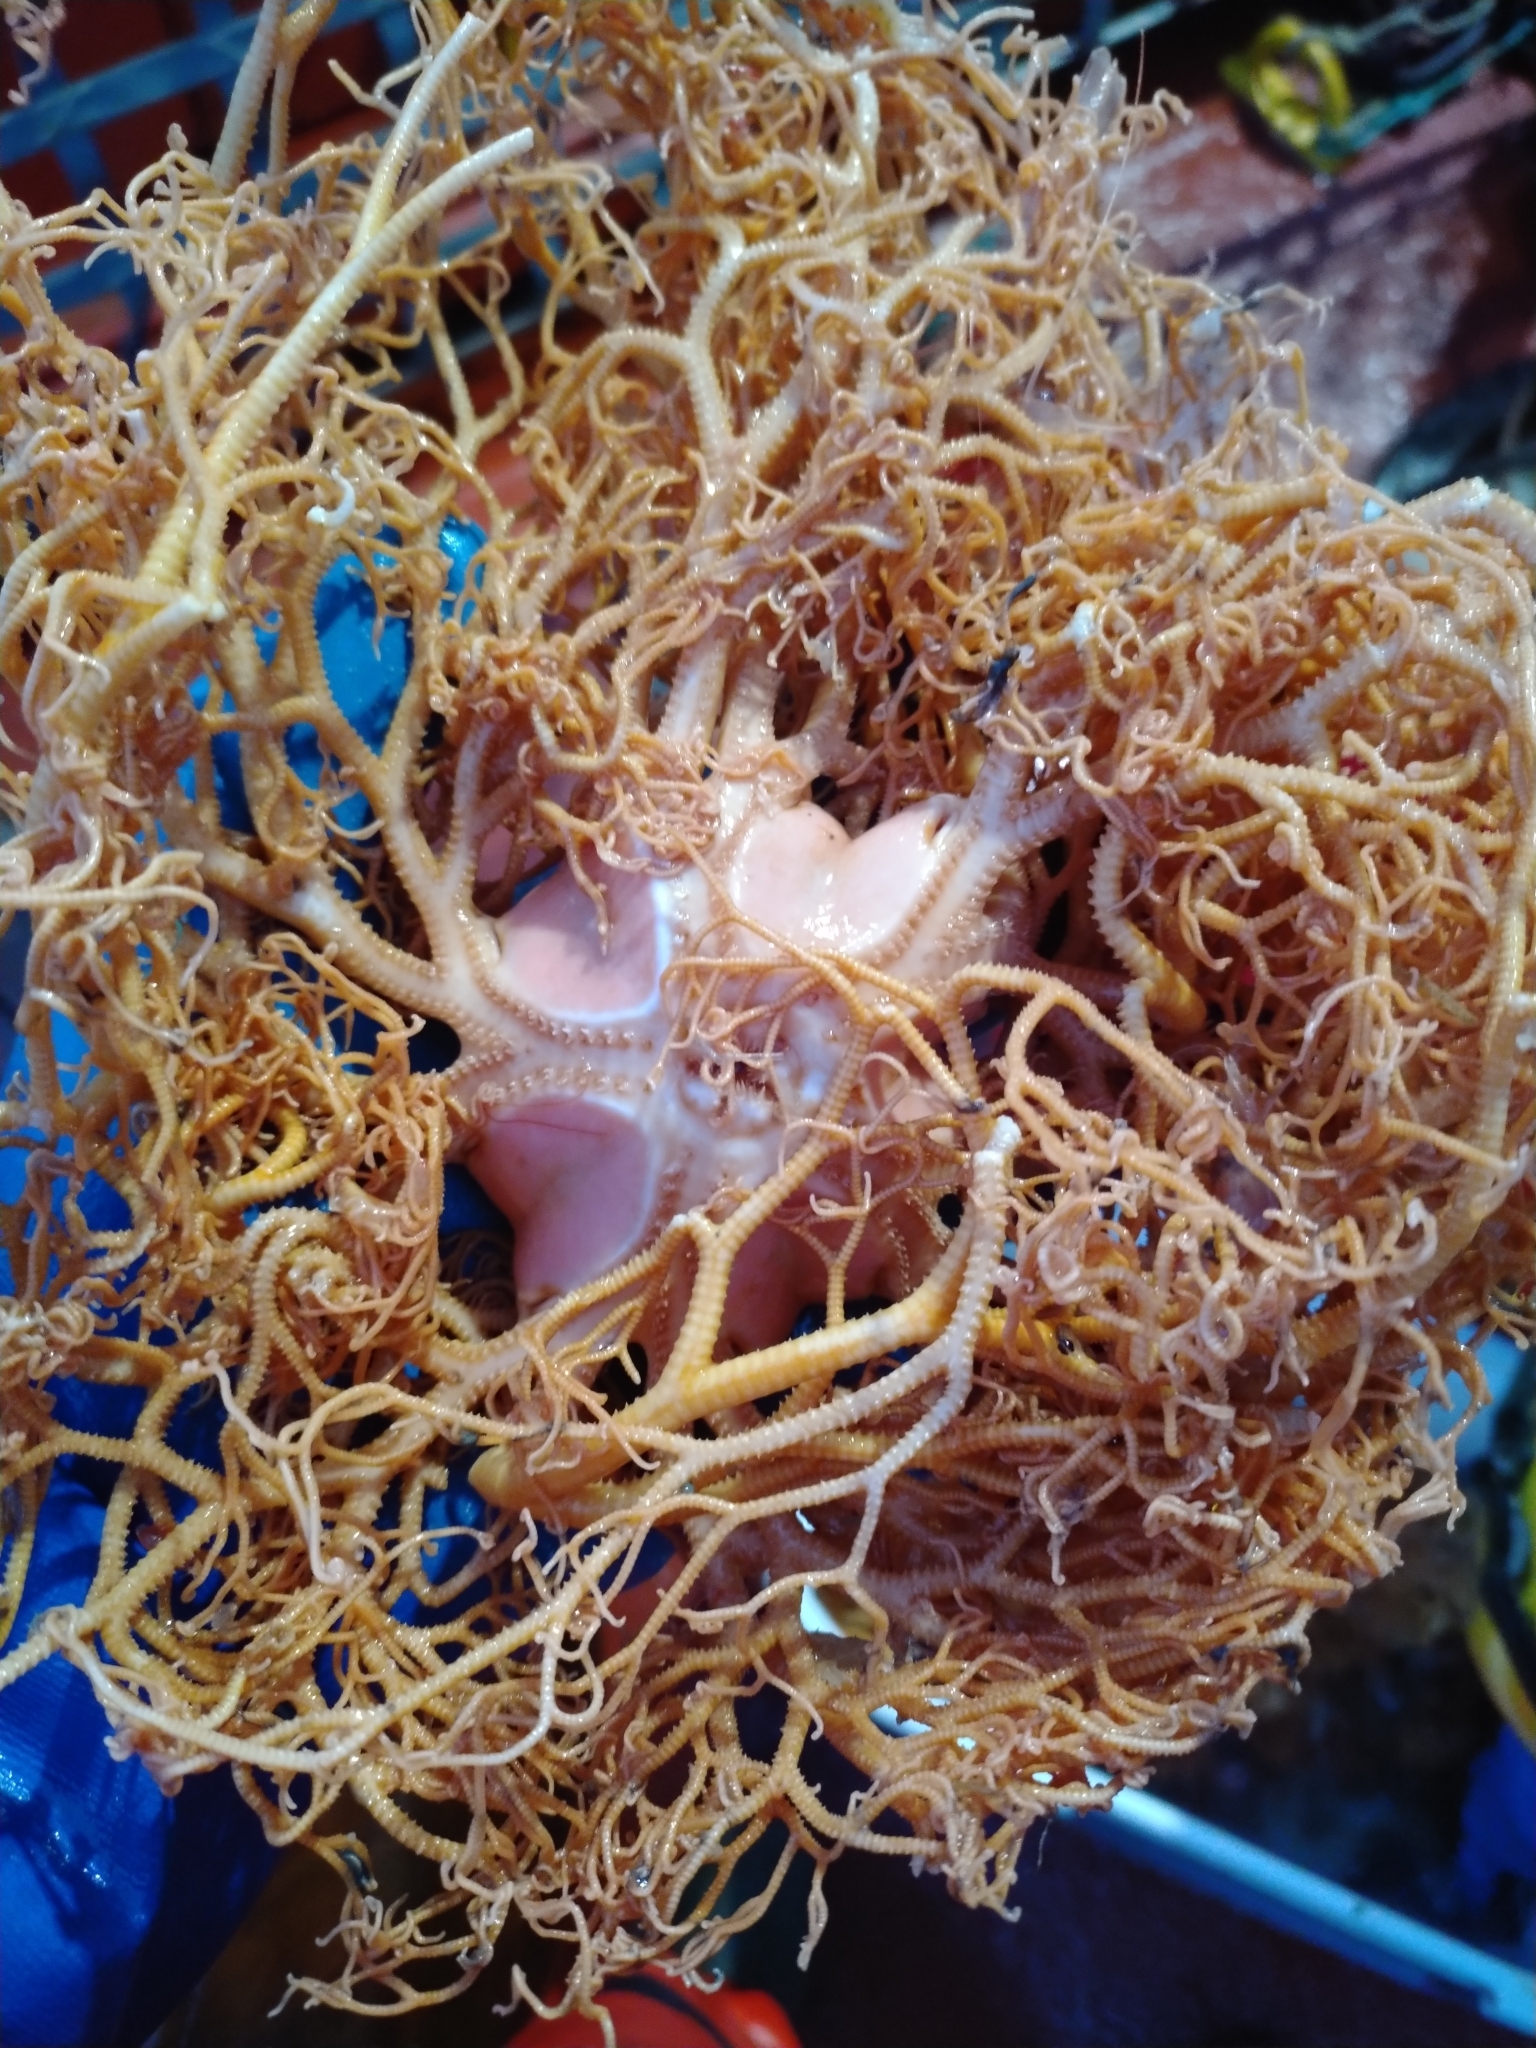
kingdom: Animalia
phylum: Echinodermata
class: Ophiuroidea
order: Euryalida
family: Gorgonocephalidae
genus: Gorgonocephalus
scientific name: Gorgonocephalus arcticus
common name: Northern basket star
